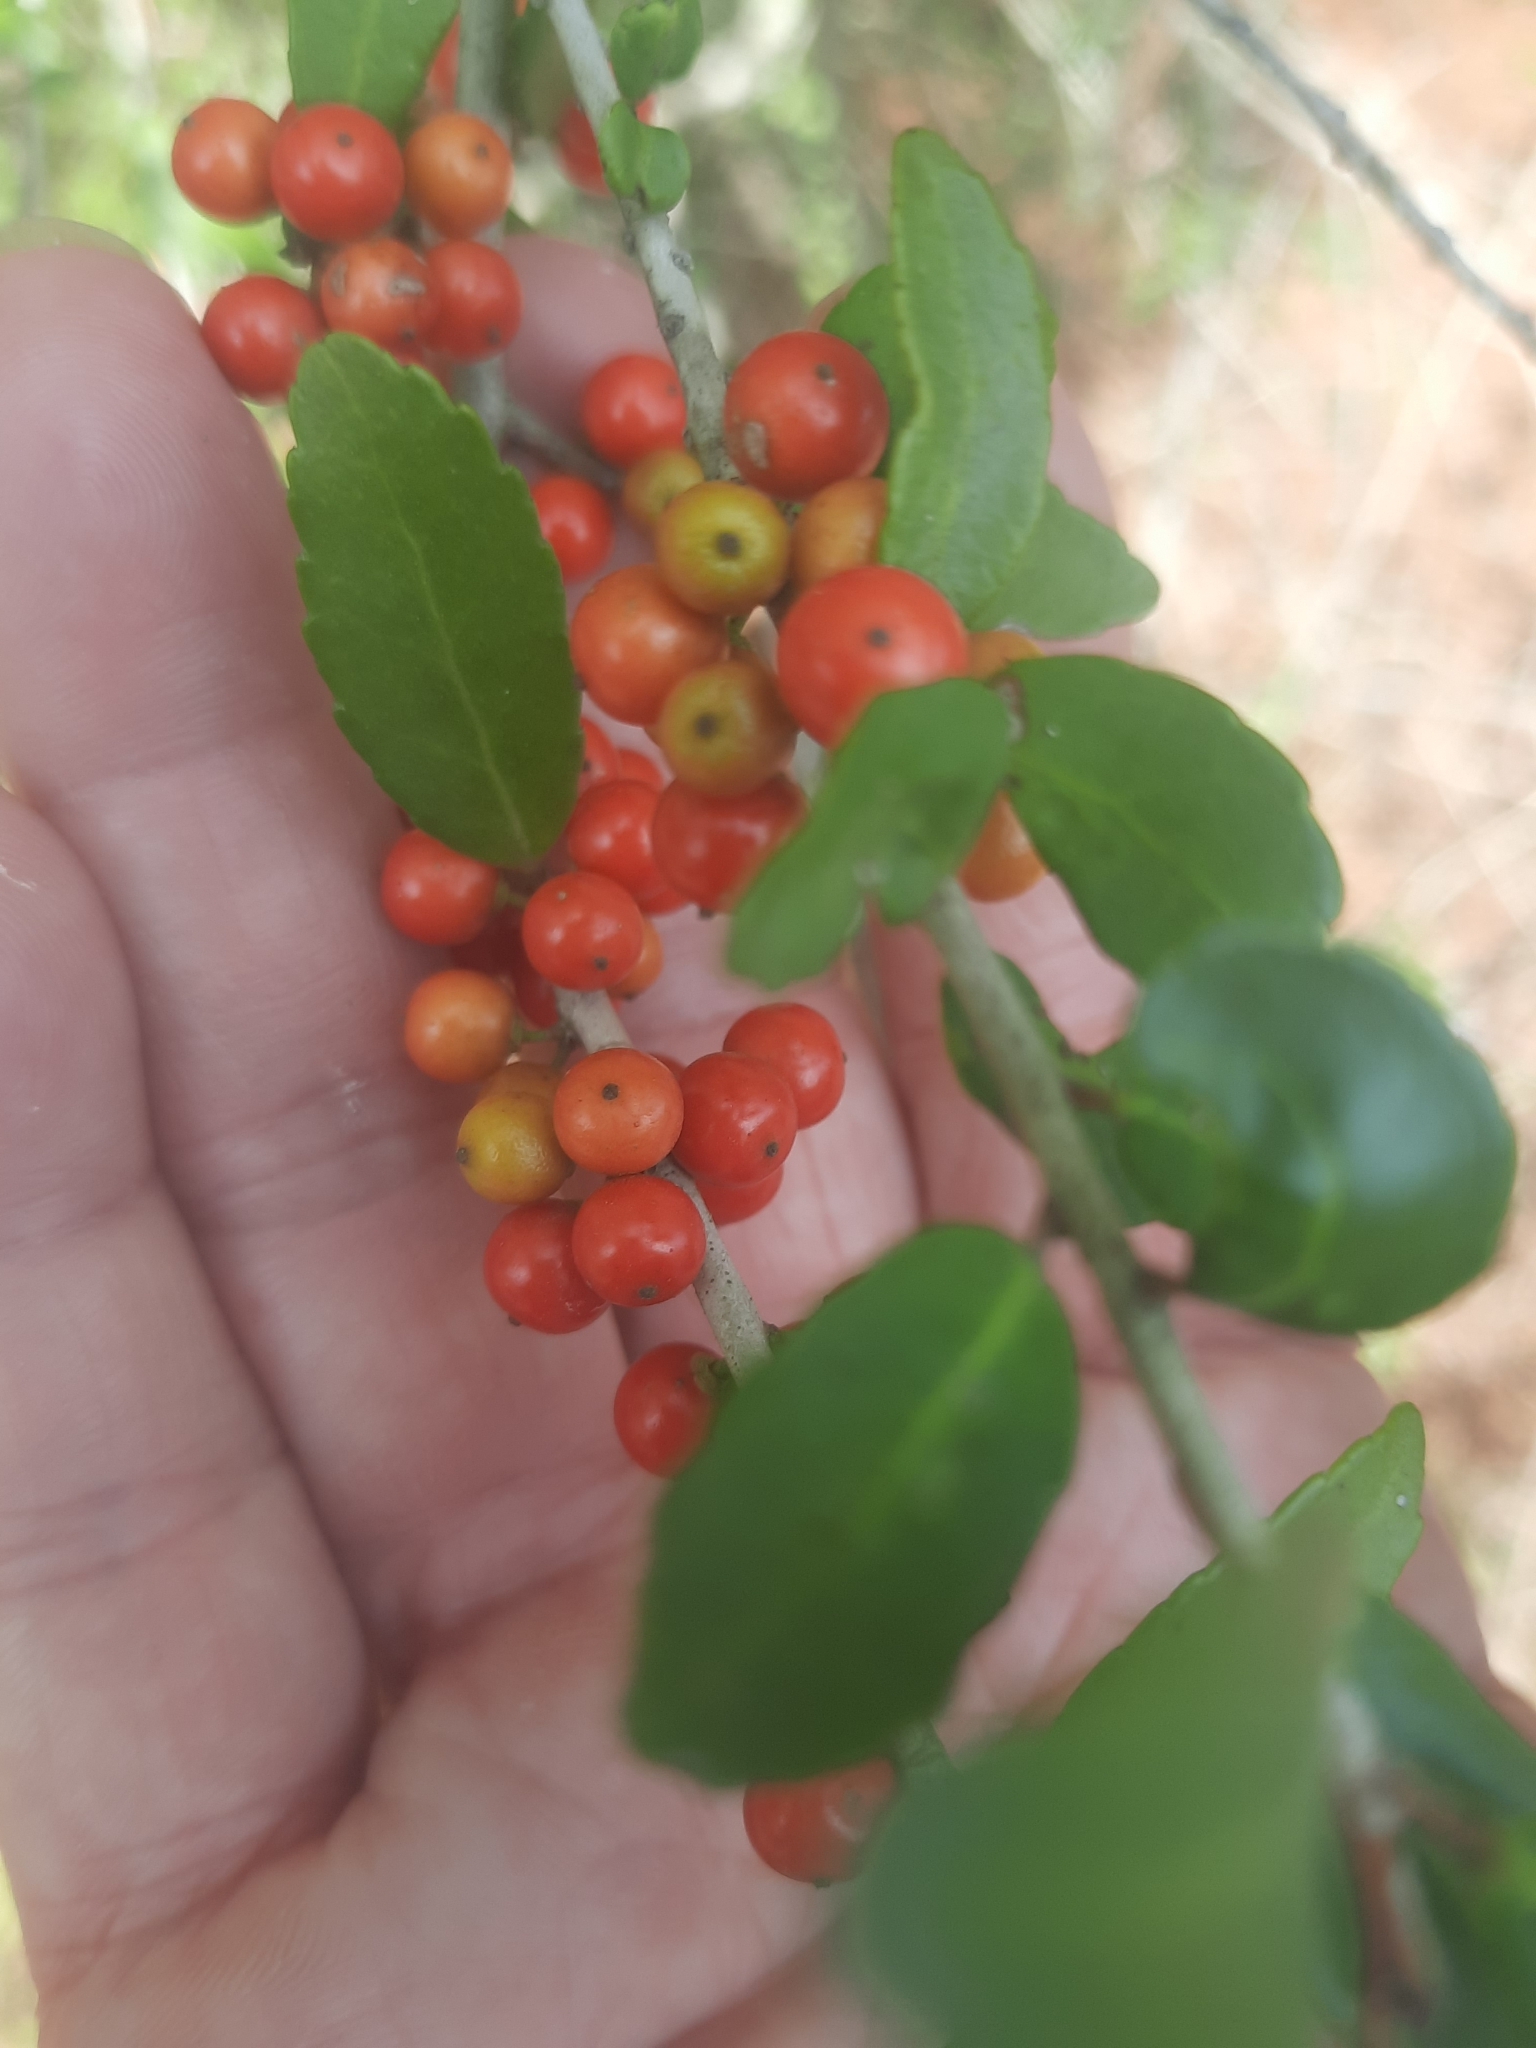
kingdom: Plantae
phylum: Tracheophyta
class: Magnoliopsida
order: Aquifoliales
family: Aquifoliaceae
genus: Ilex
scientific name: Ilex vomitoria
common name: Yaupon holly
